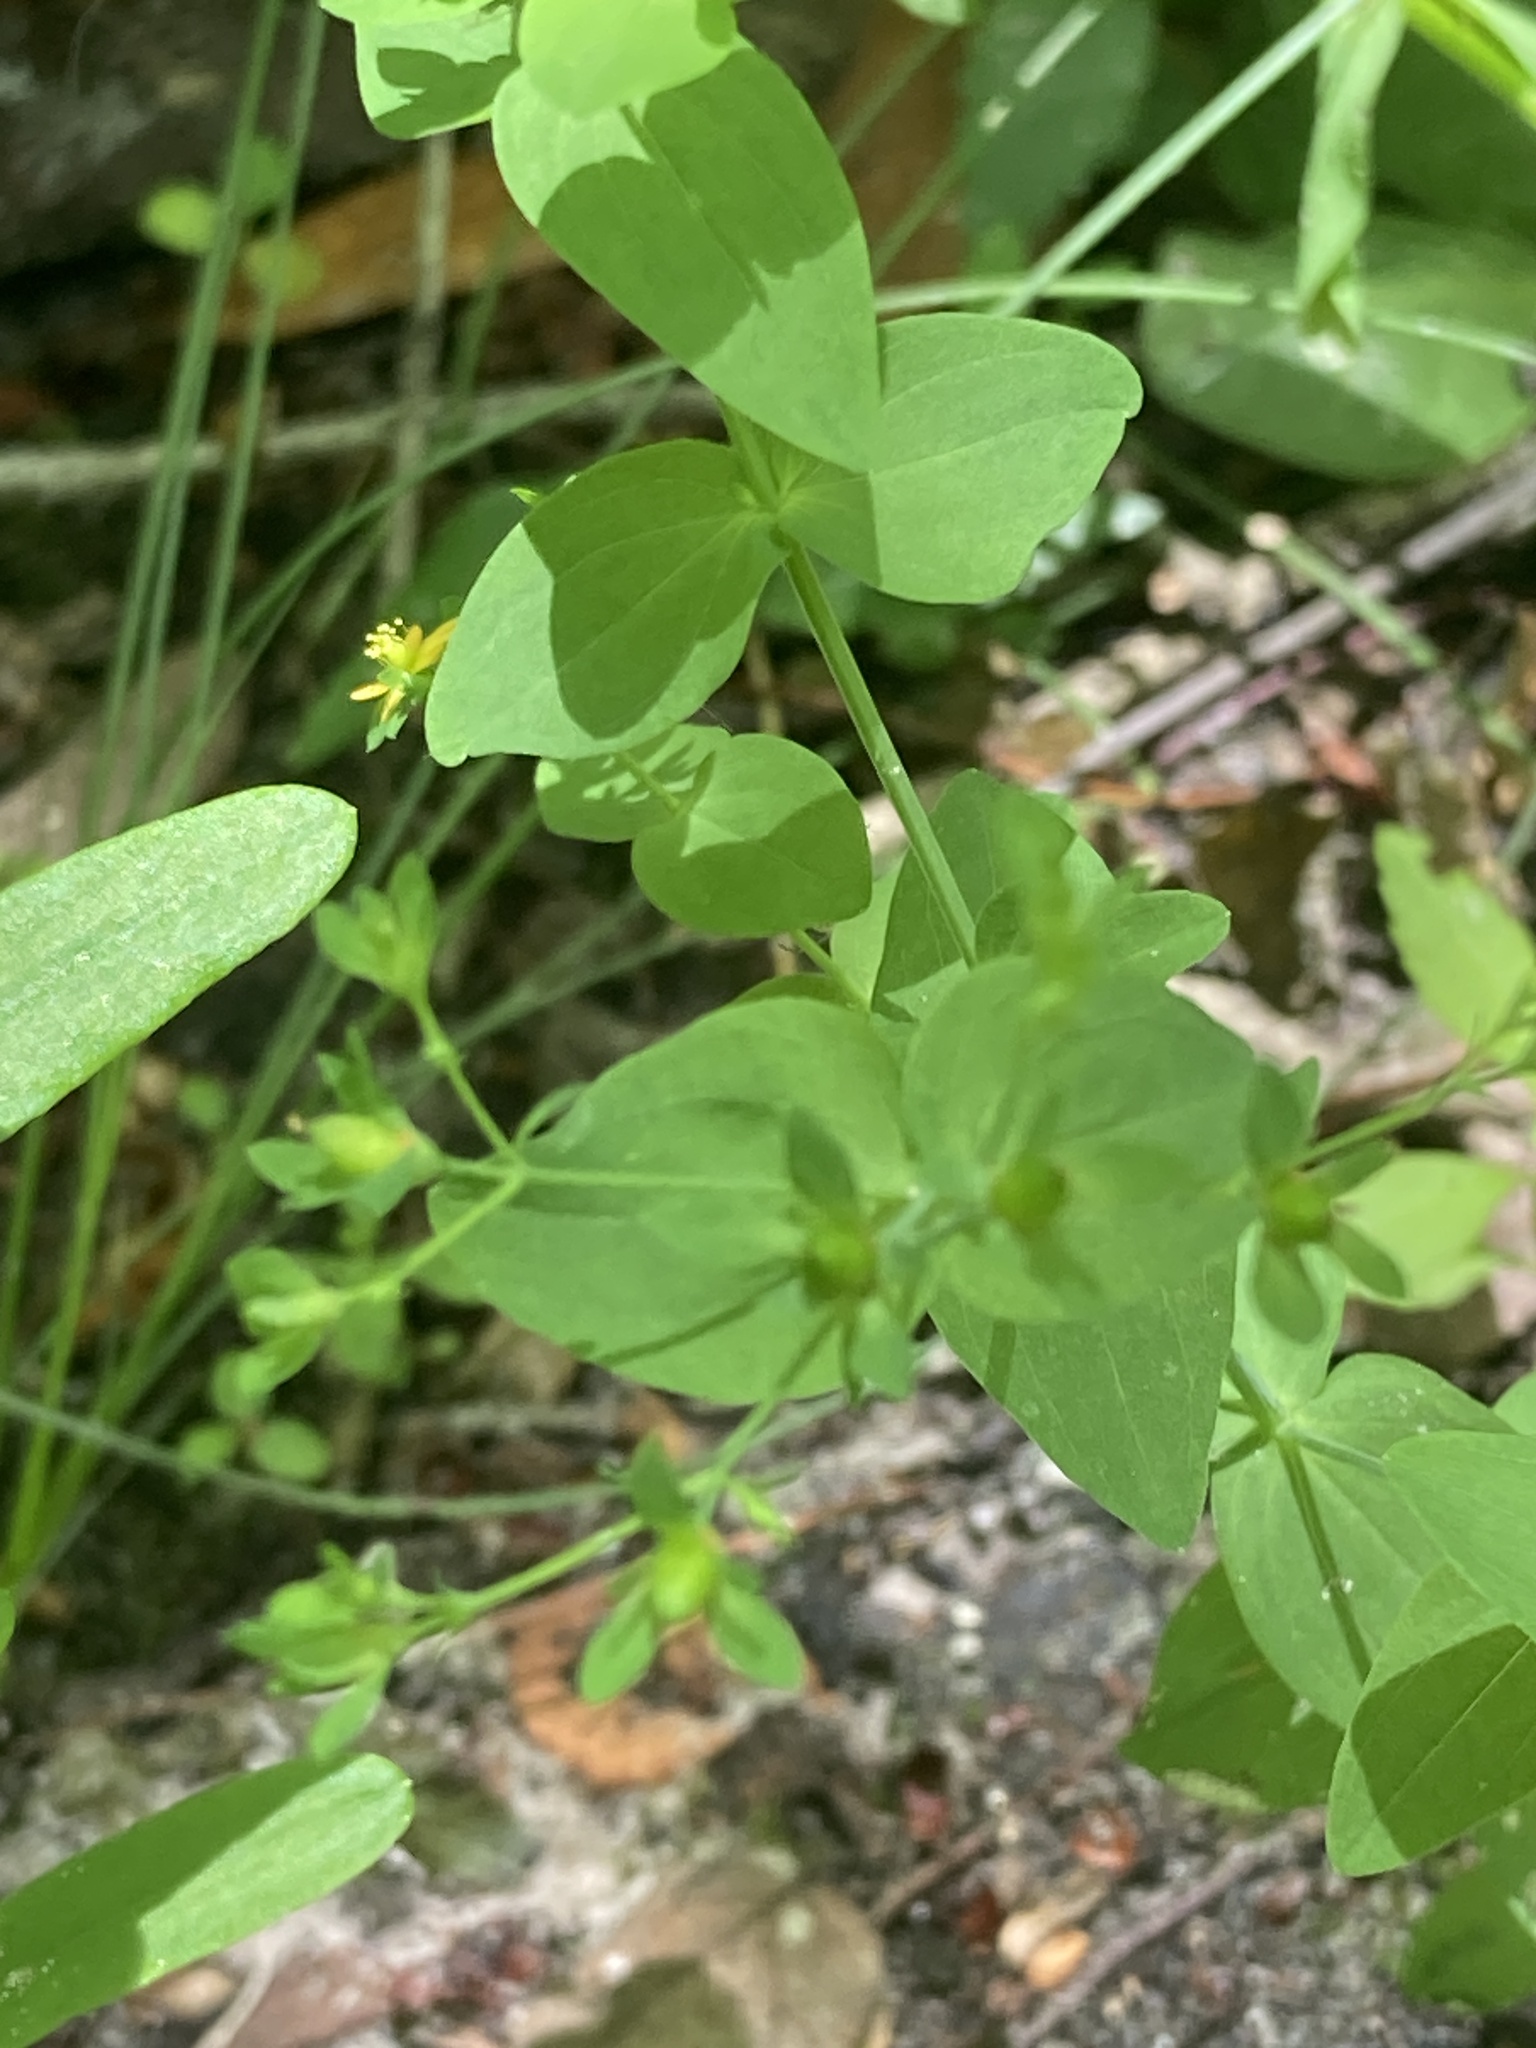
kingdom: Plantae
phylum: Tracheophyta
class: Magnoliopsida
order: Malpighiales
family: Hypericaceae
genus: Hypericum
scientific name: Hypericum mutilum
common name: Dwarf st. john's-wort
